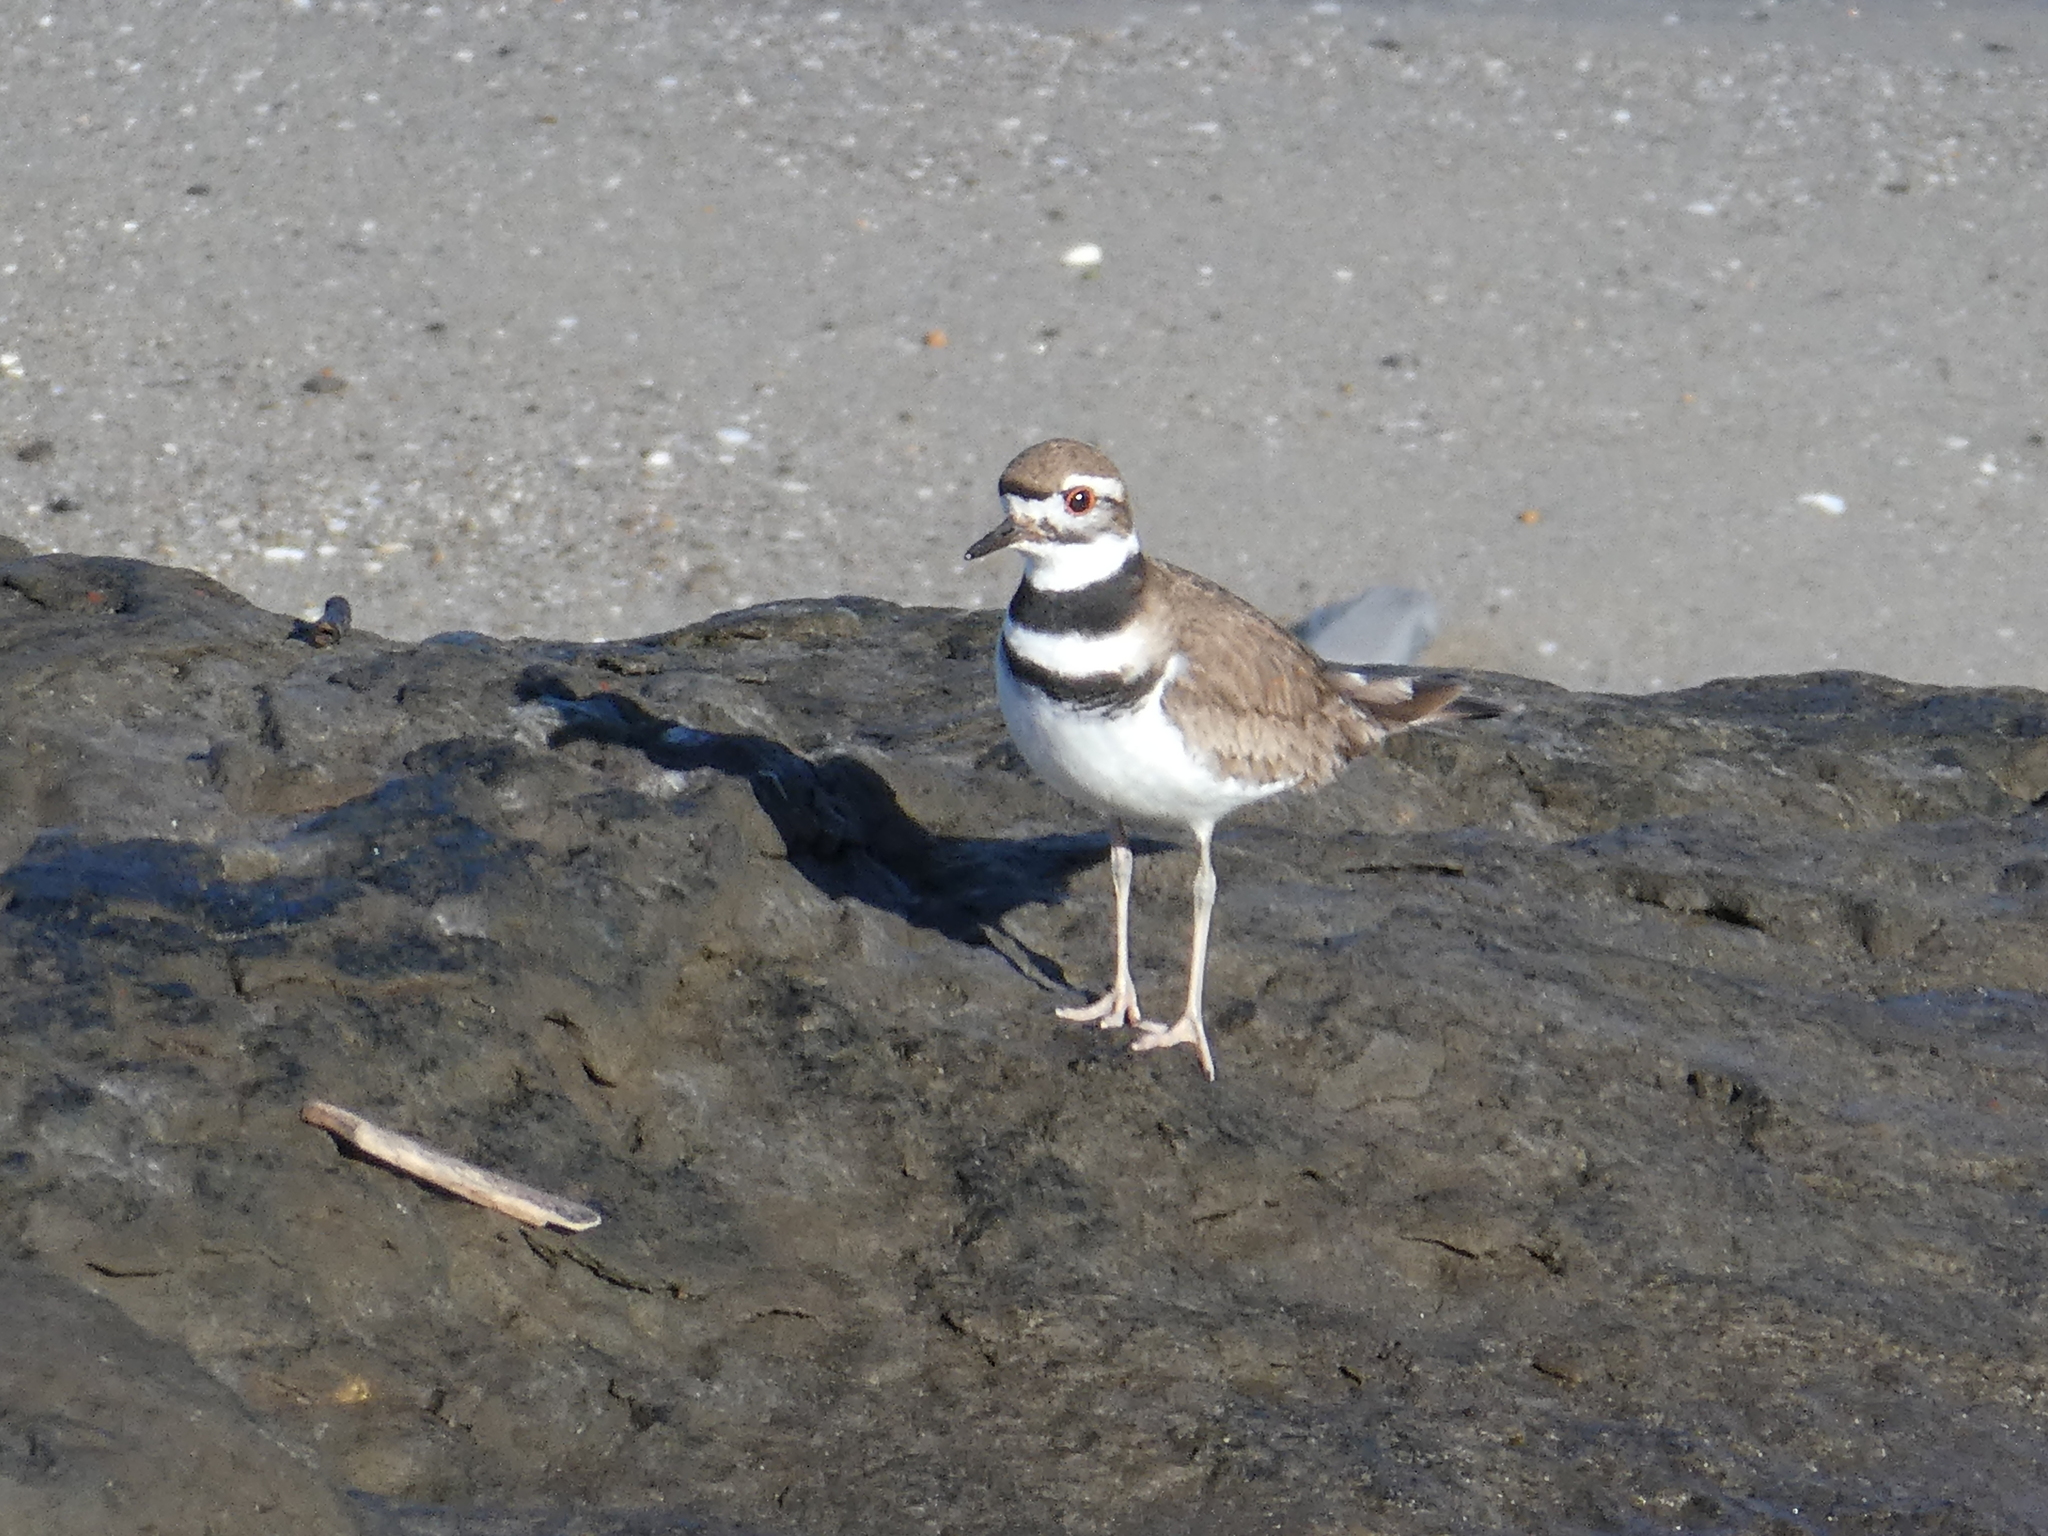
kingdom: Animalia
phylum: Chordata
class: Aves
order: Charadriiformes
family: Charadriidae
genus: Charadrius
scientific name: Charadrius vociferus
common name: Killdeer
